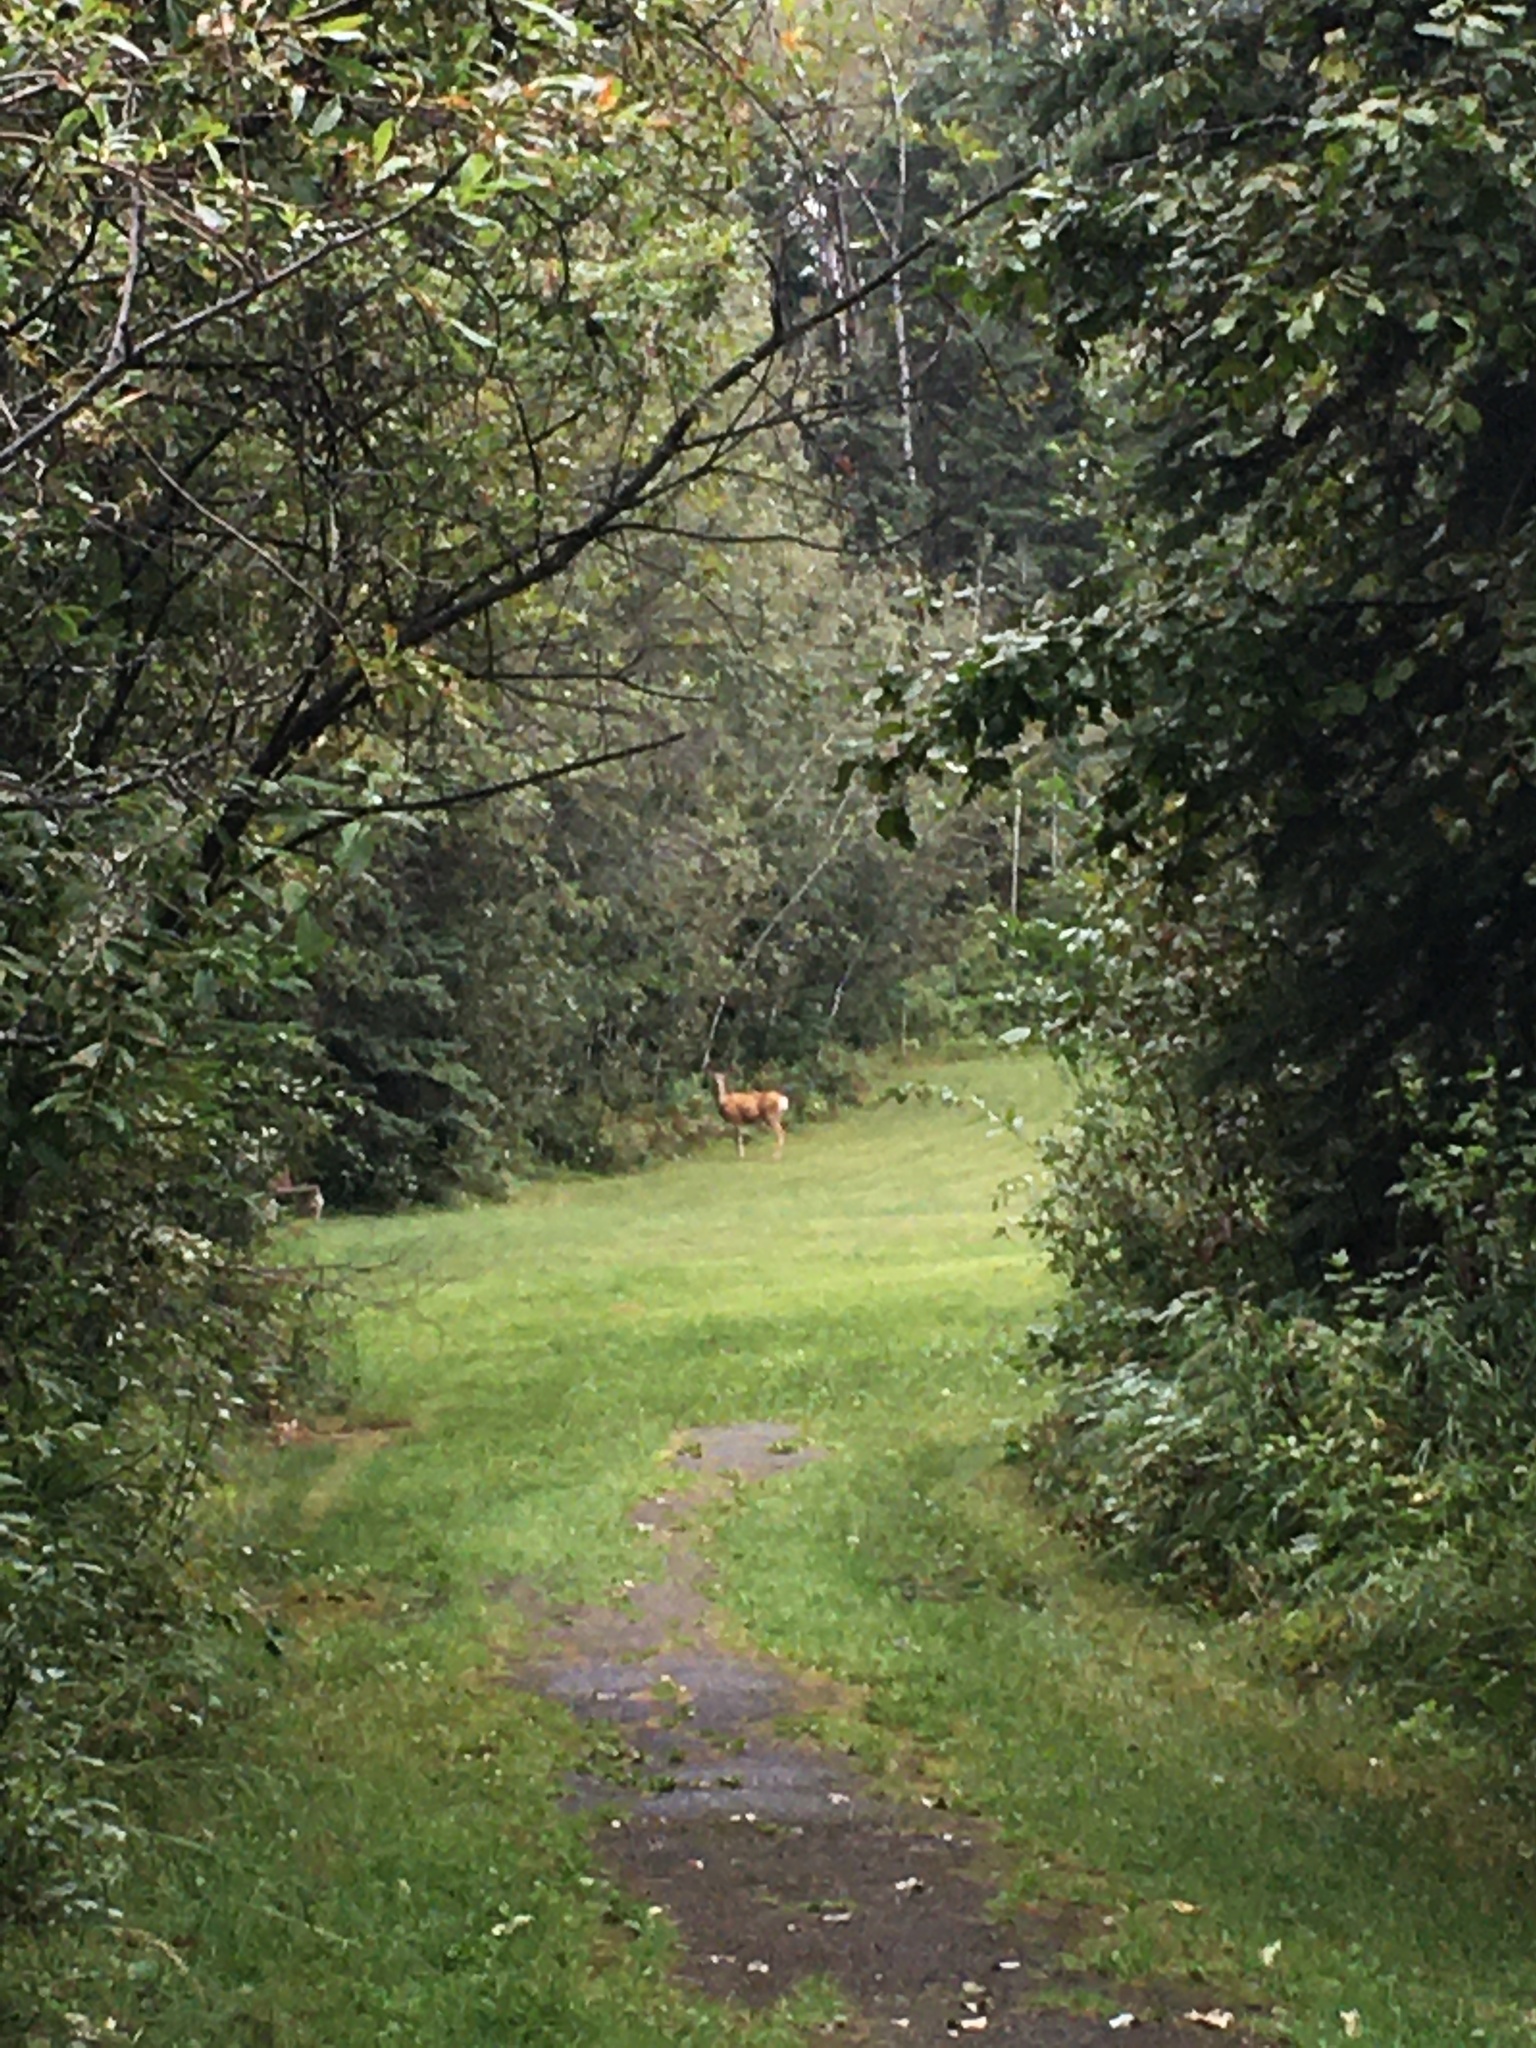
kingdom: Animalia
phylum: Chordata
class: Mammalia
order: Artiodactyla
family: Cervidae
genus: Odocoileus
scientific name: Odocoileus hemionus
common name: Mule deer
